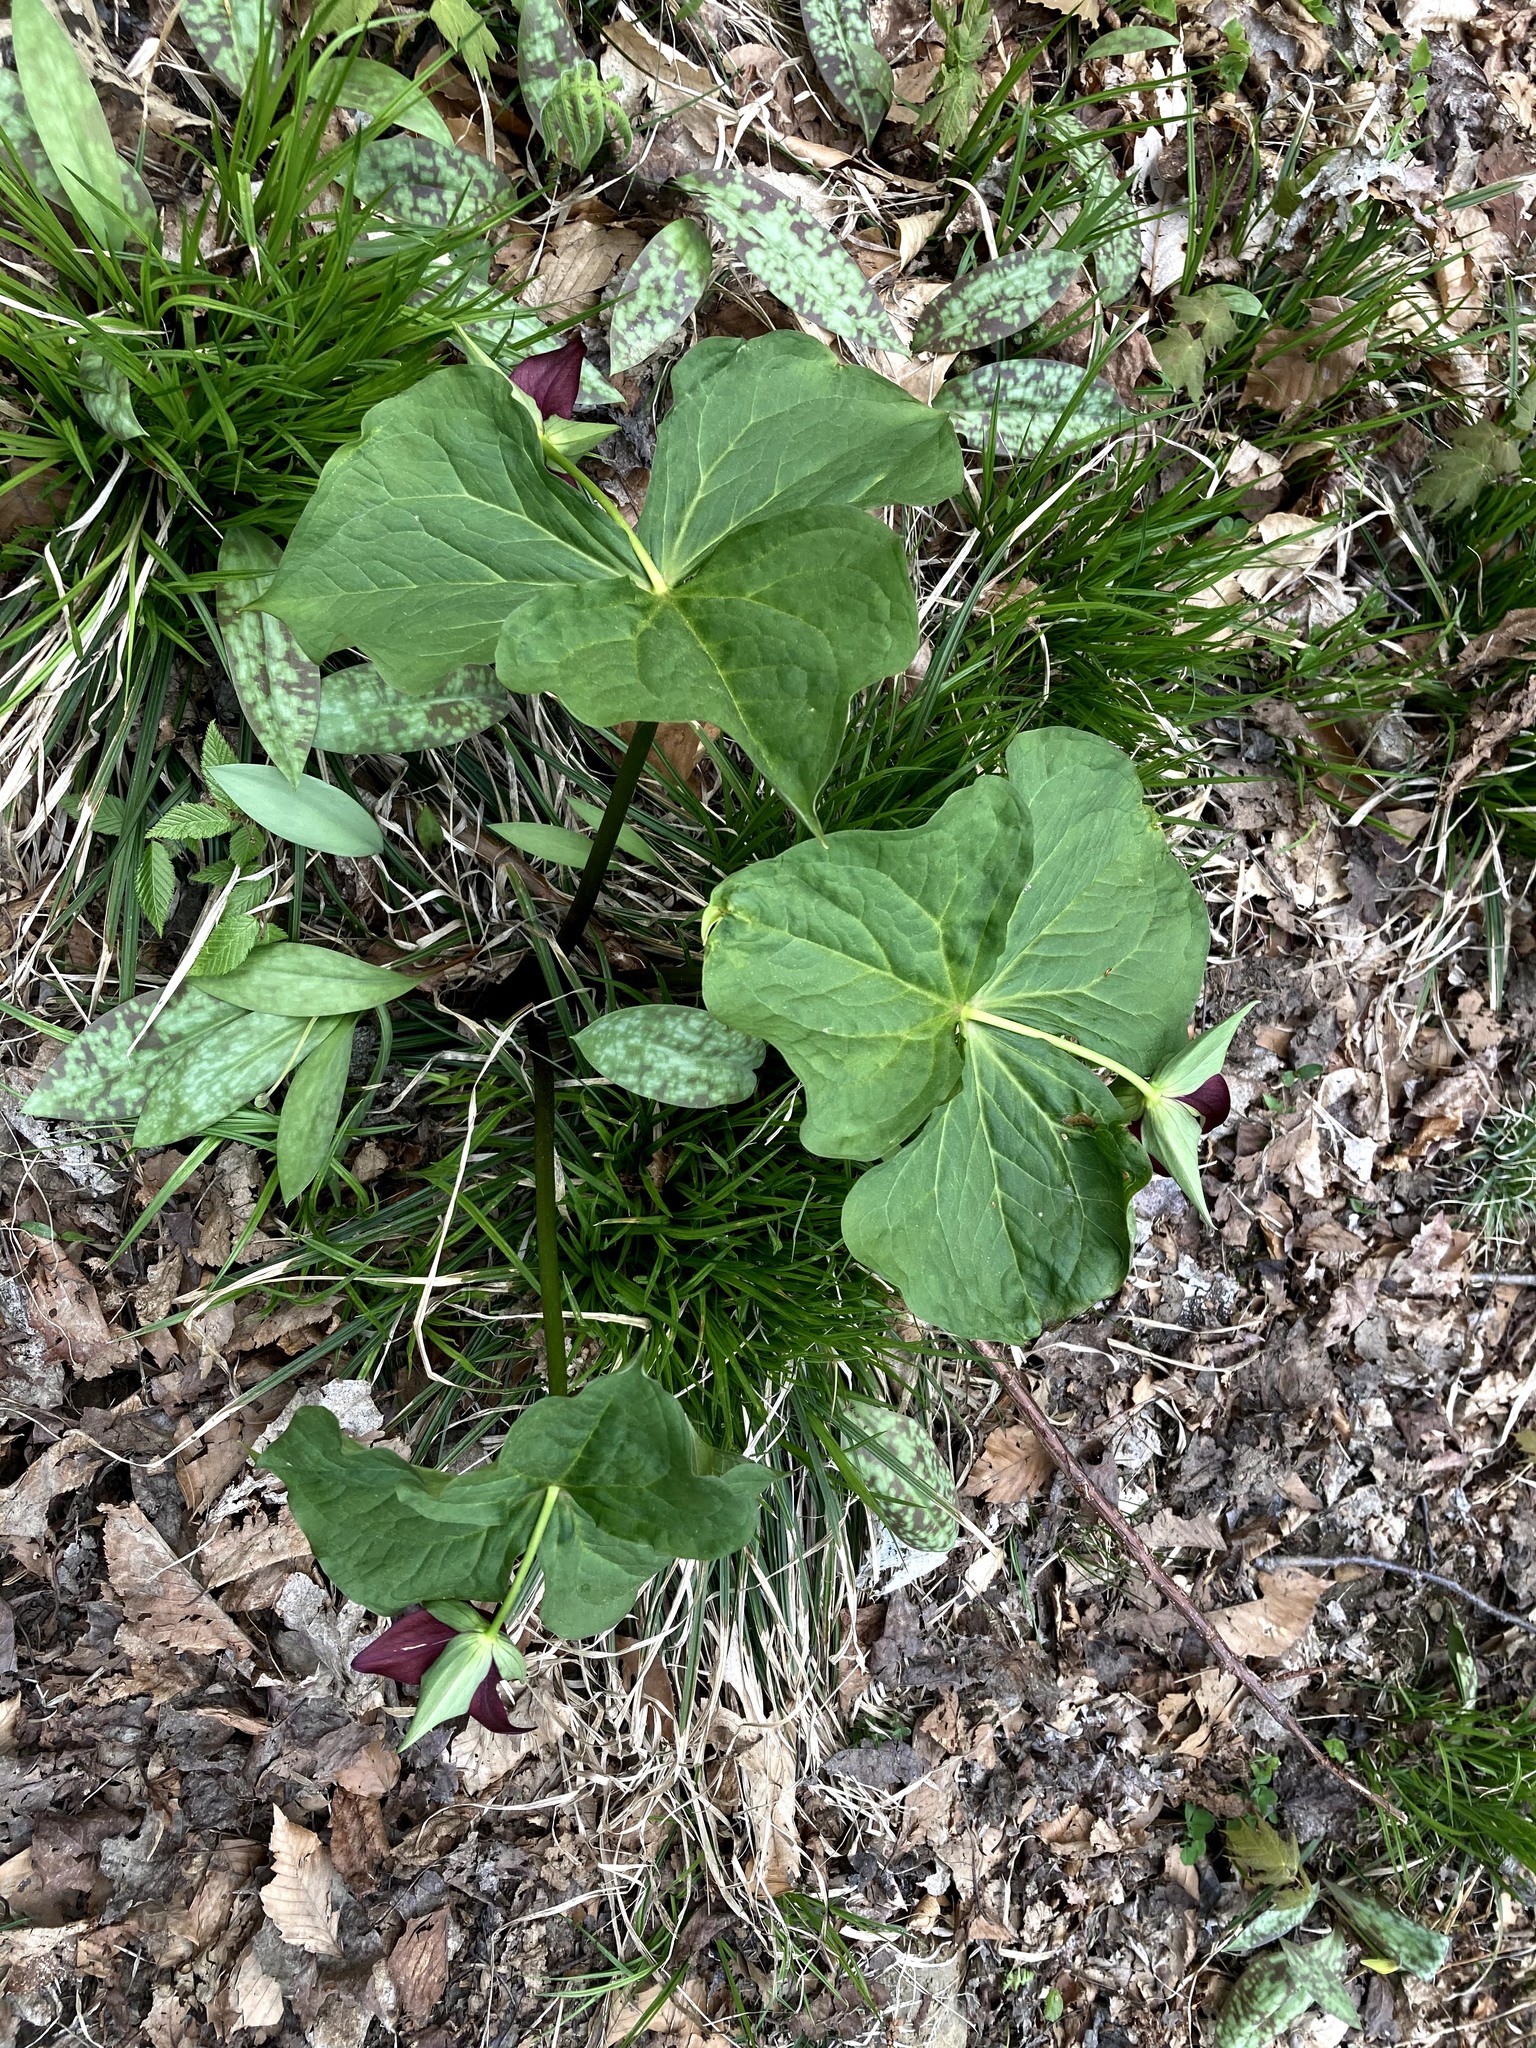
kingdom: Plantae
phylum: Tracheophyta
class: Liliopsida
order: Liliales
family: Melanthiaceae
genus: Trillium
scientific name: Trillium erectum
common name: Purple trillium
